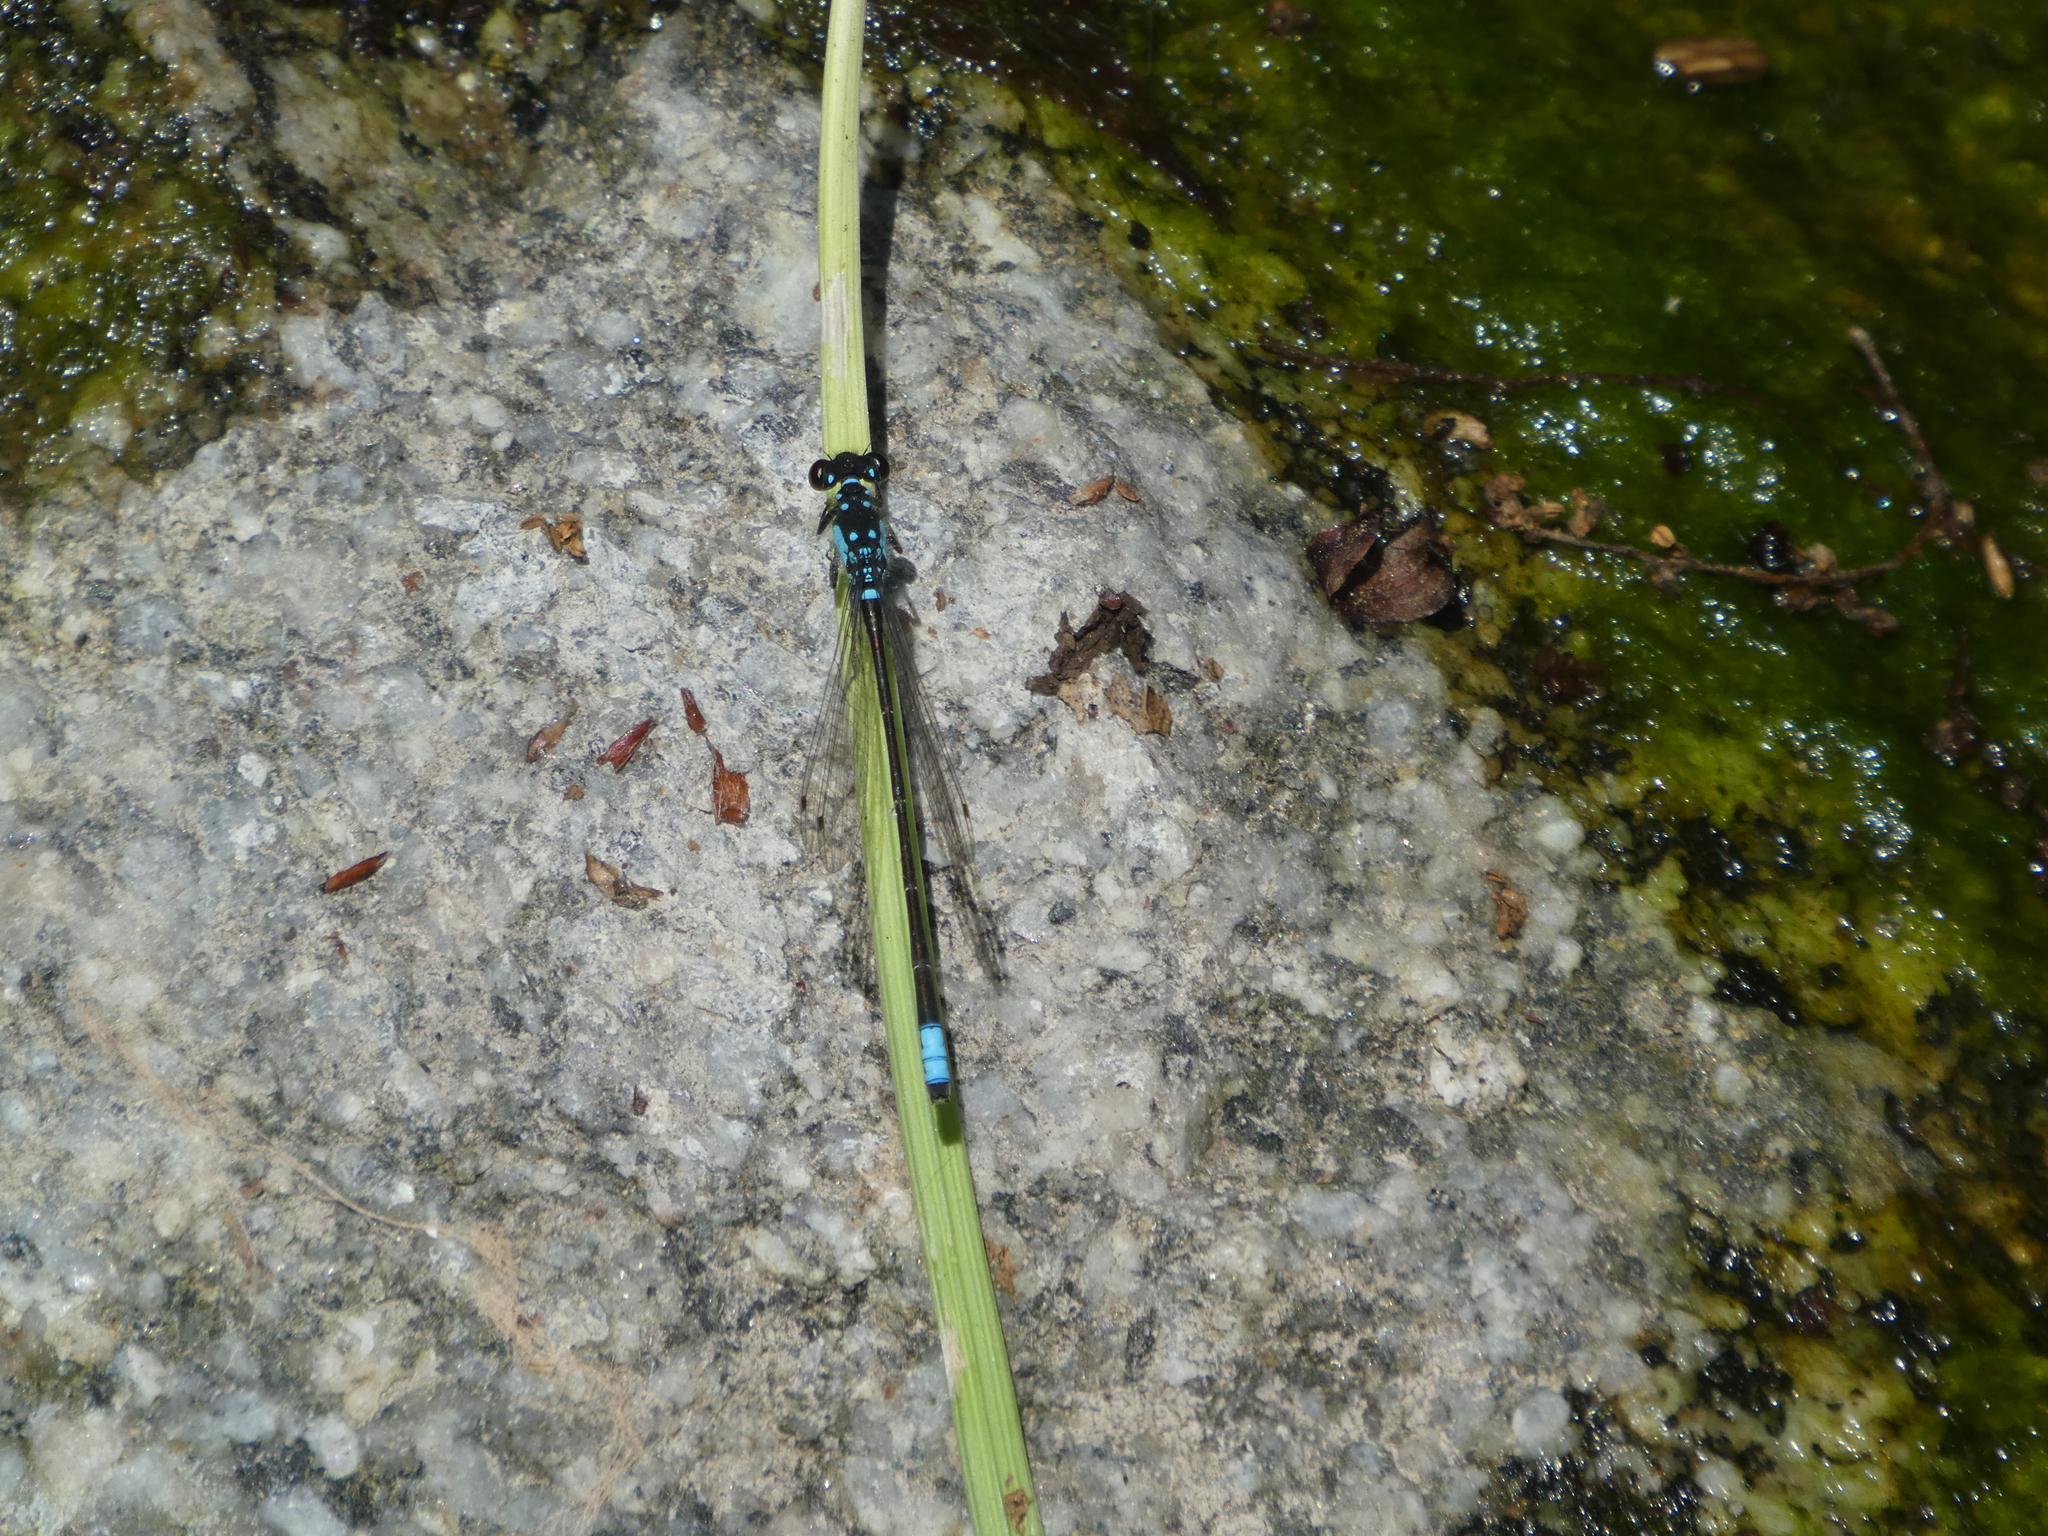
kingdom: Animalia
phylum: Arthropoda
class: Insecta
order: Odonata
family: Coenagrionidae
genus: Ischnura
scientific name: Ischnura cervula
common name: Pacific forktail
